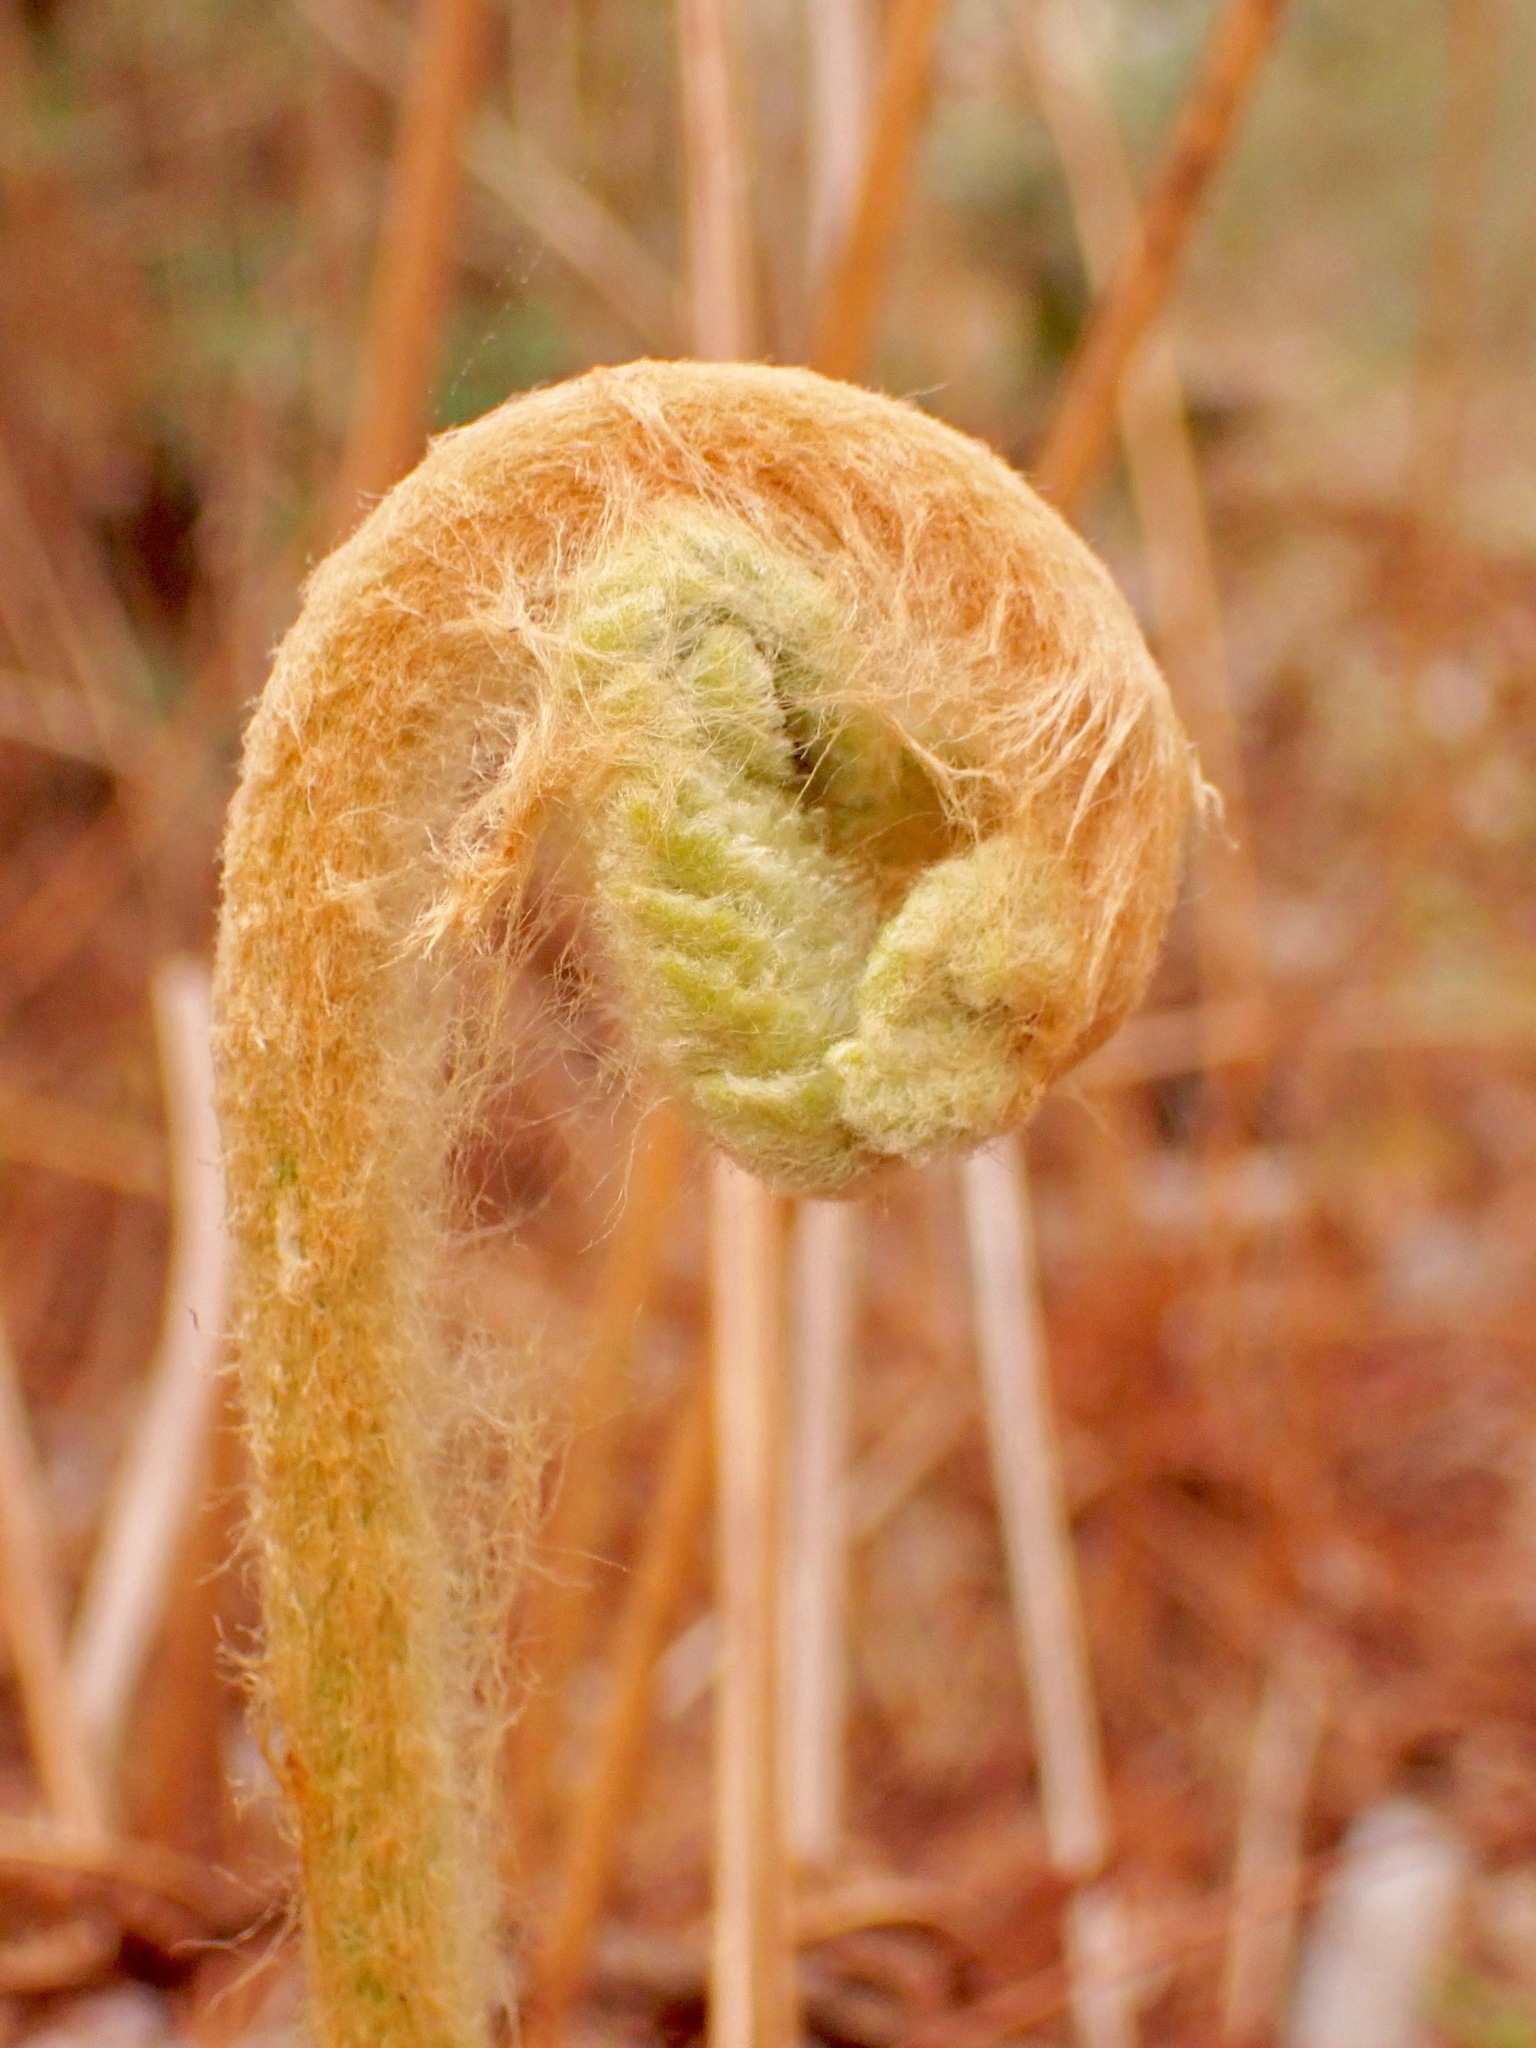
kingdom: Plantae
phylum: Tracheophyta
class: Polypodiopsida
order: Osmundales
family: Osmundaceae
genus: Osmundastrum
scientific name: Osmundastrum cinnamomeum
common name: Cinnamon fern
